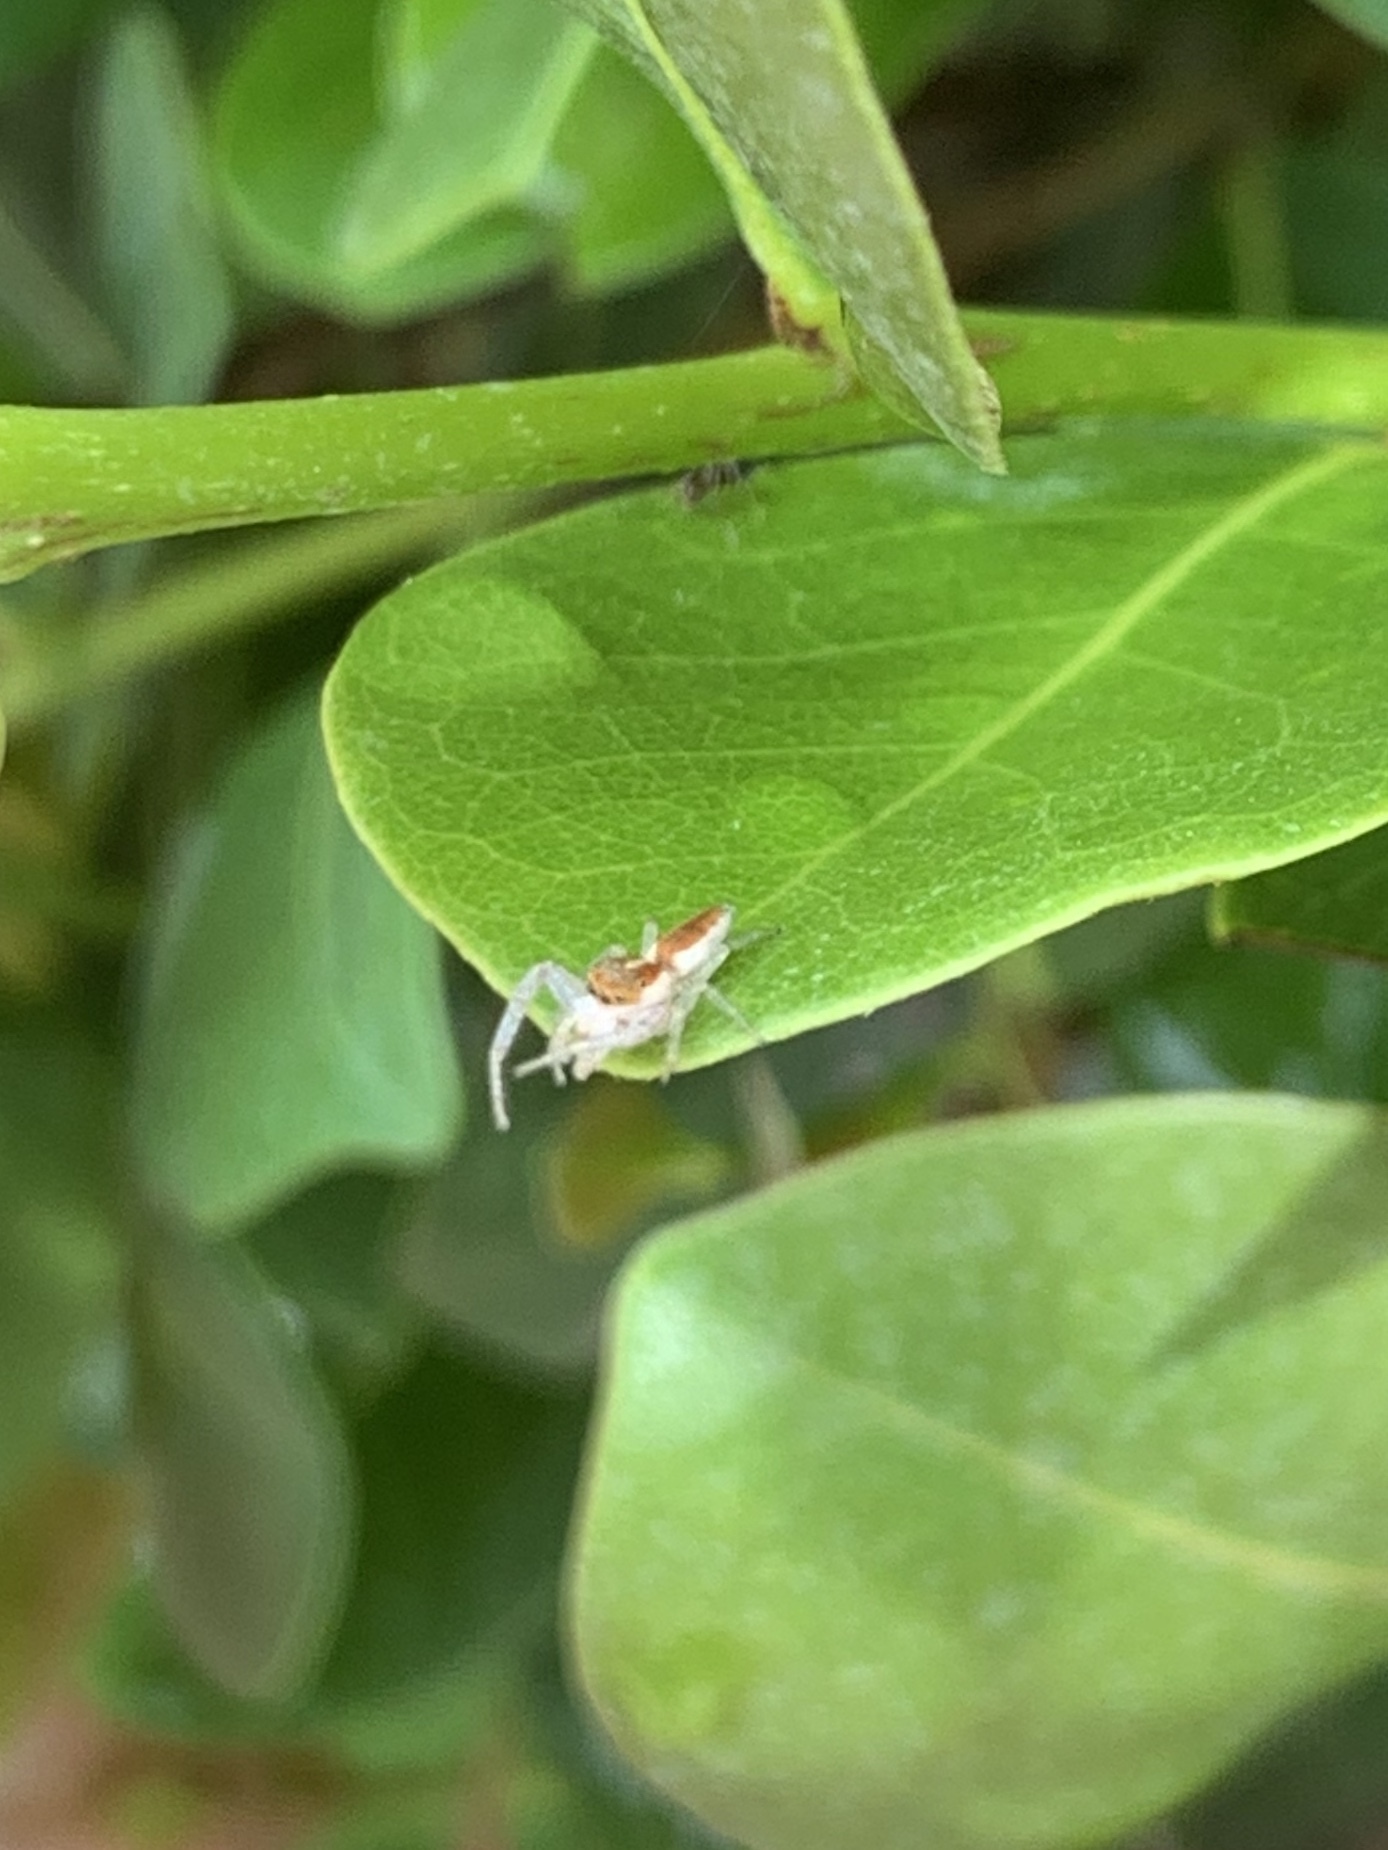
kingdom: Animalia
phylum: Arthropoda
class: Arachnida
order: Araneae
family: Salticidae
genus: Hentzia
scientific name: Hentzia mitrata
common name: White-jawed jumping spider
